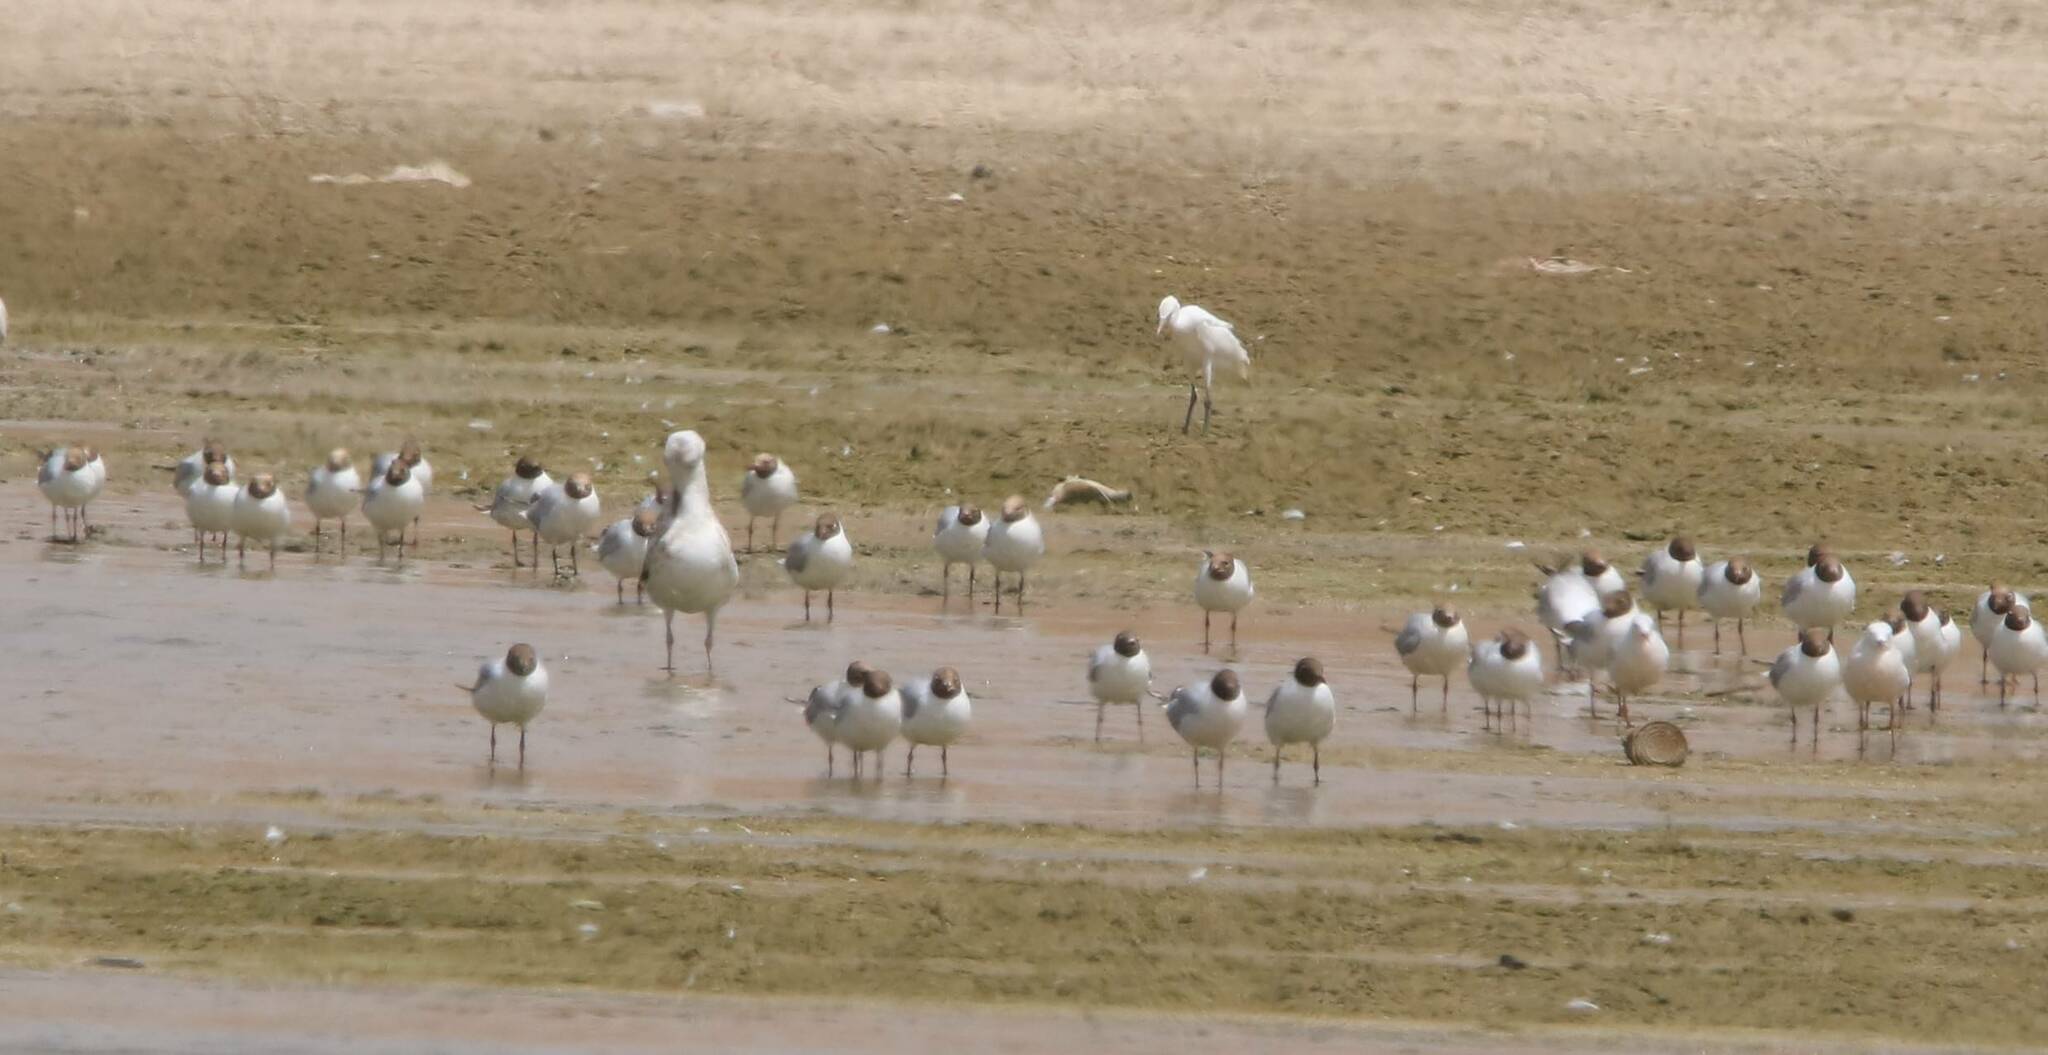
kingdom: Animalia
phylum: Chordata
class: Aves
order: Charadriiformes
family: Laridae
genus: Chroicocephalus
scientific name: Chroicocephalus ridibundus
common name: Black-headed gull
